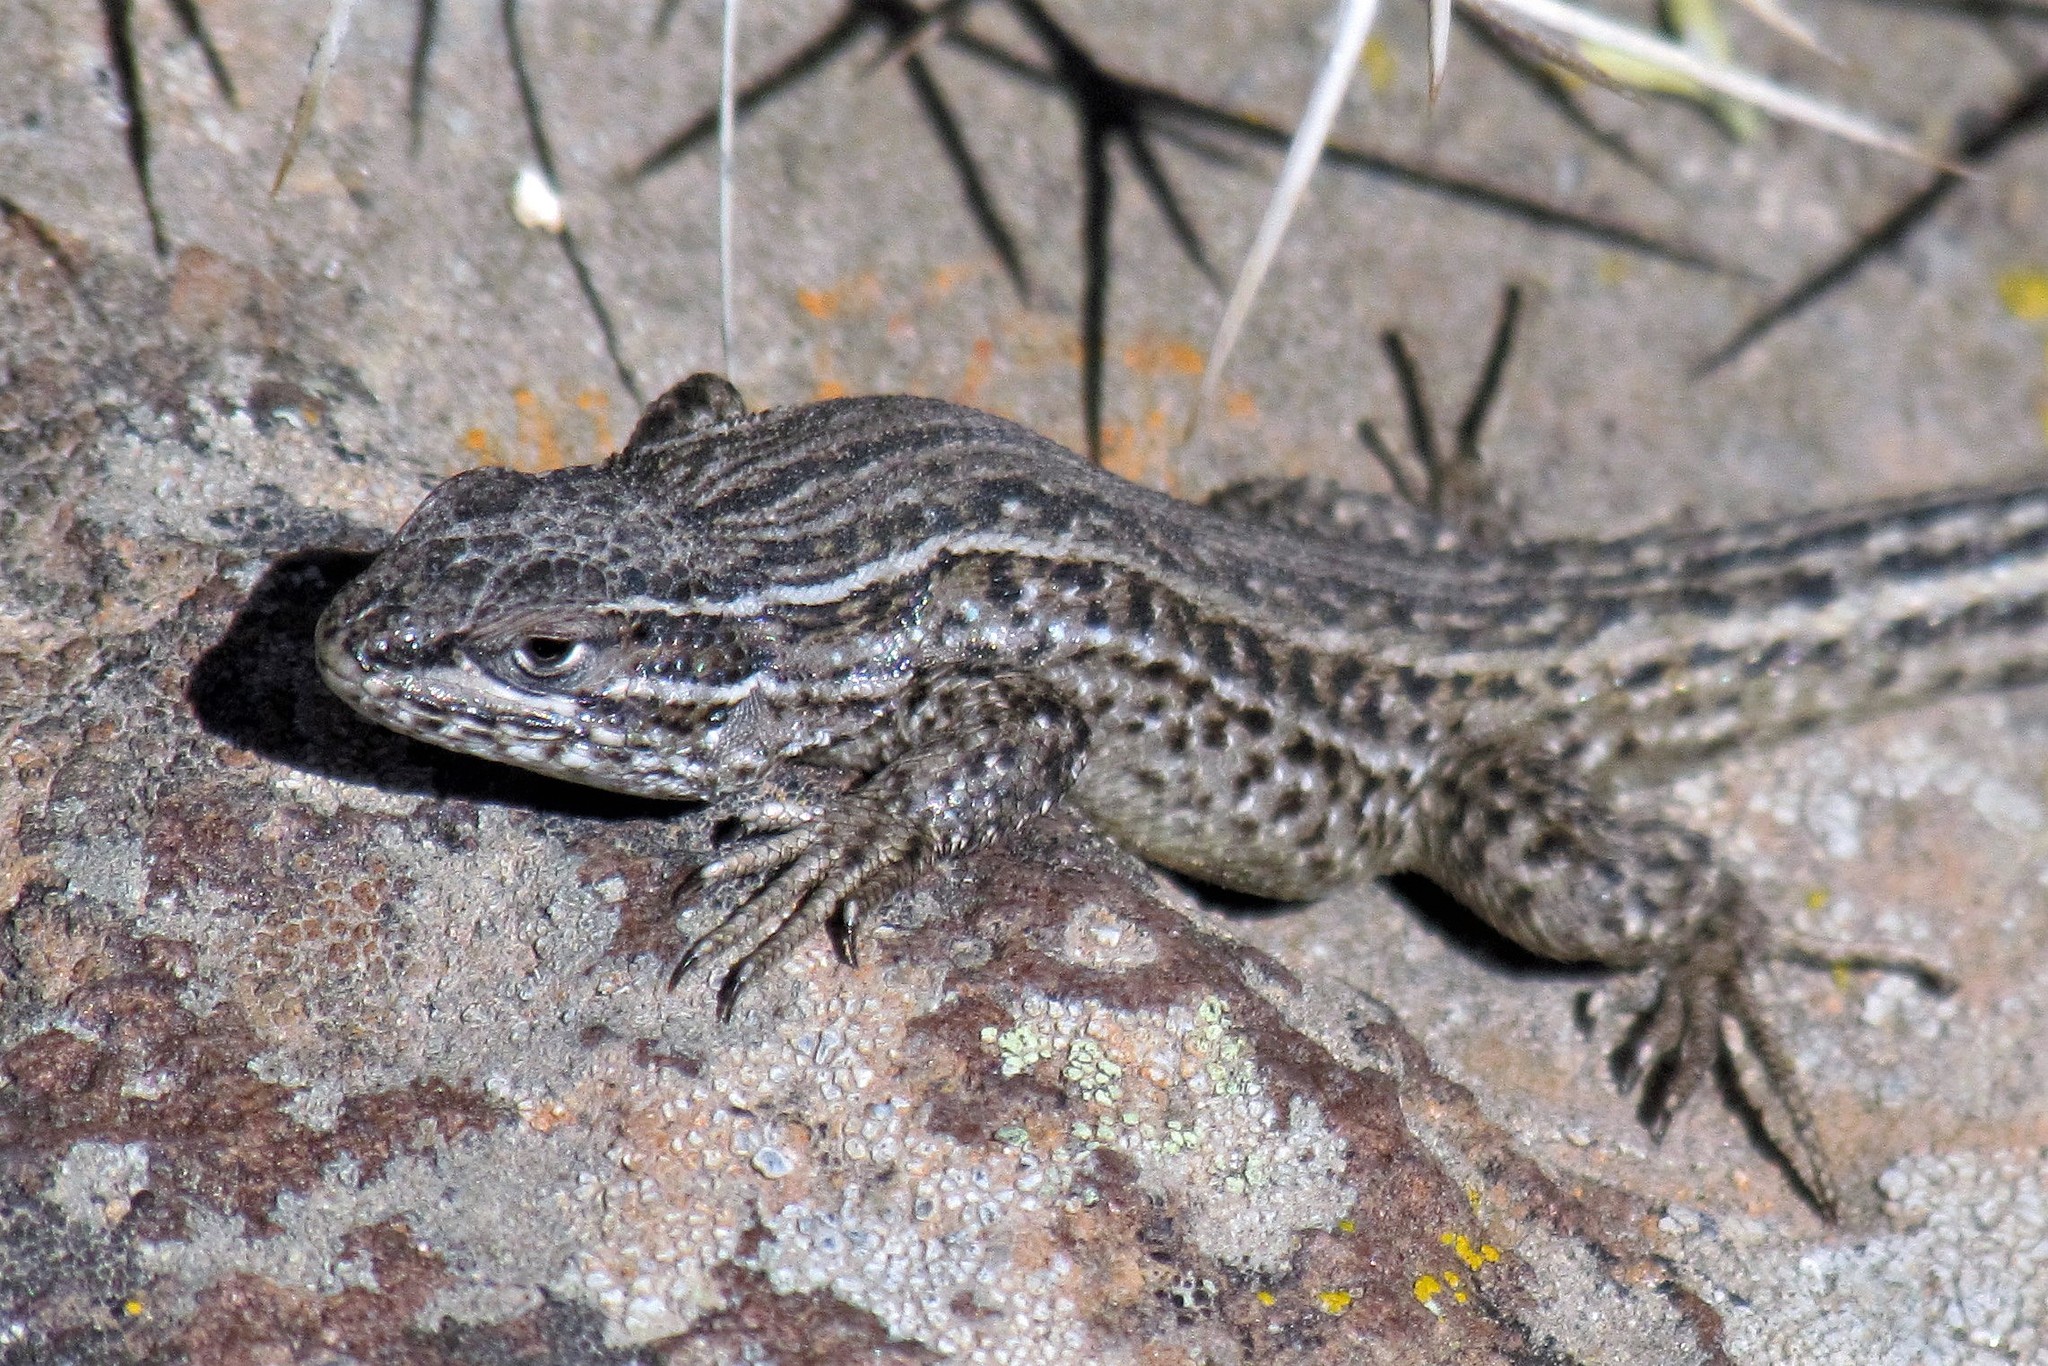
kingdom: Animalia
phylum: Chordata
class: Squamata
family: Liolaemidae
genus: Liolaemus
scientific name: Liolaemus bibronii
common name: Bibron's tree iguana
